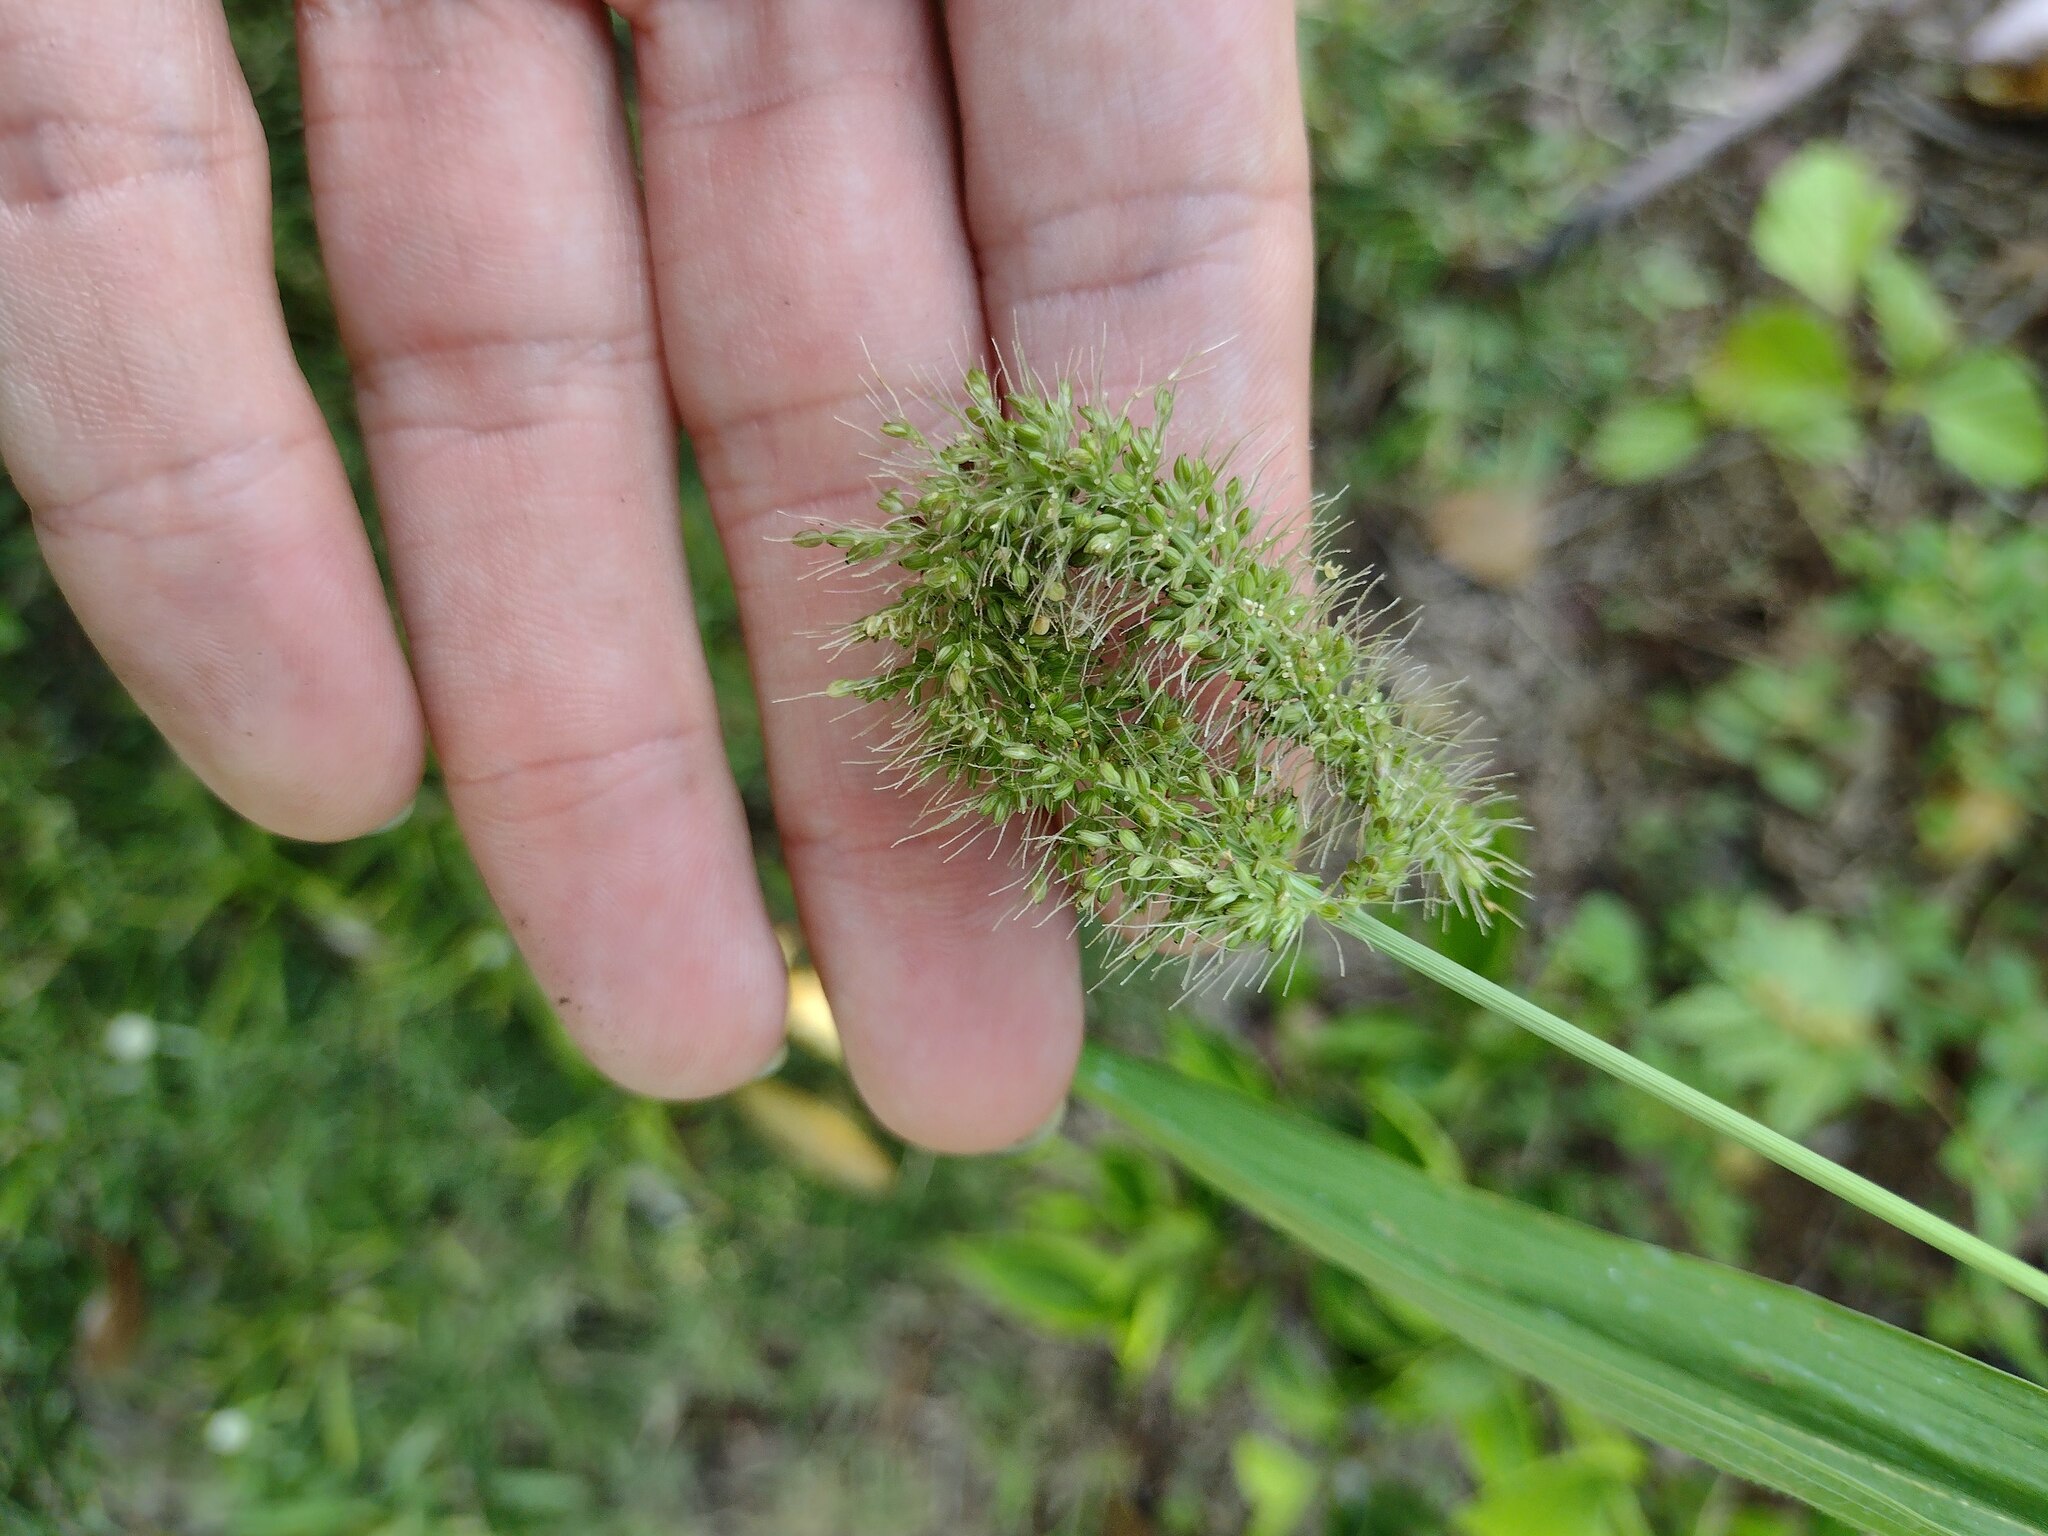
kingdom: Plantae
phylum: Tracheophyta
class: Liliopsida
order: Poales
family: Poaceae
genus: Setaria
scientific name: Setaria adhaerens
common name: Adherent bristle-grass
